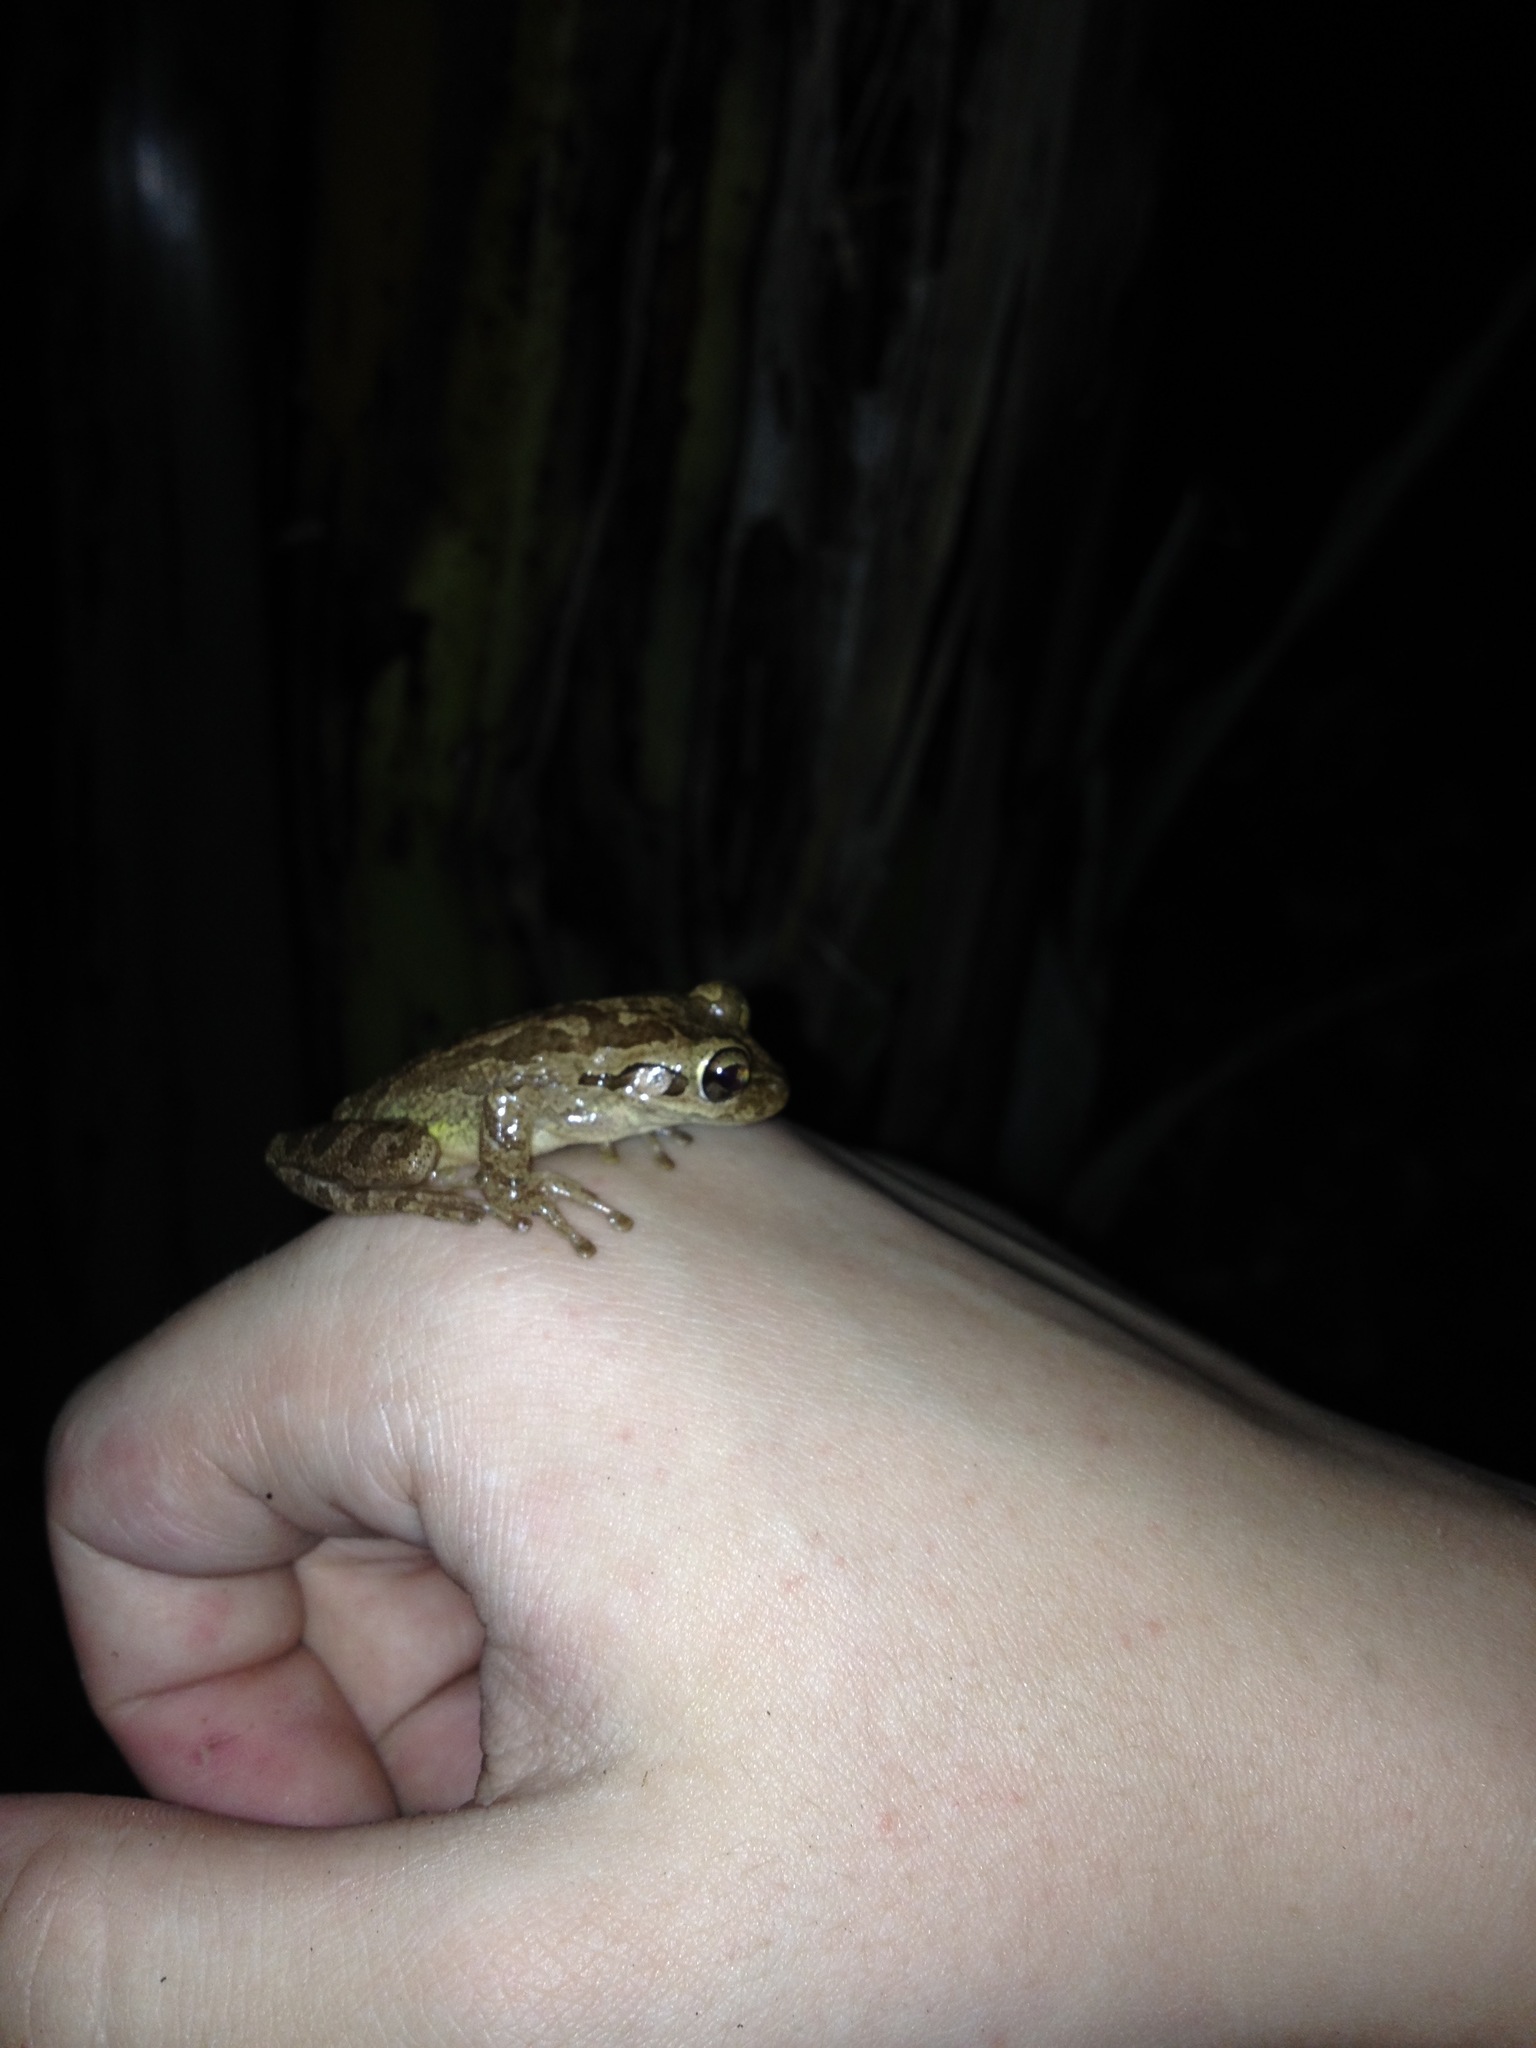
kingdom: Animalia
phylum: Chordata
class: Amphibia
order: Anura
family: Hylidae
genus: Osteopilus
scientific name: Osteopilus septentrionalis
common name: Cuban treefrog
